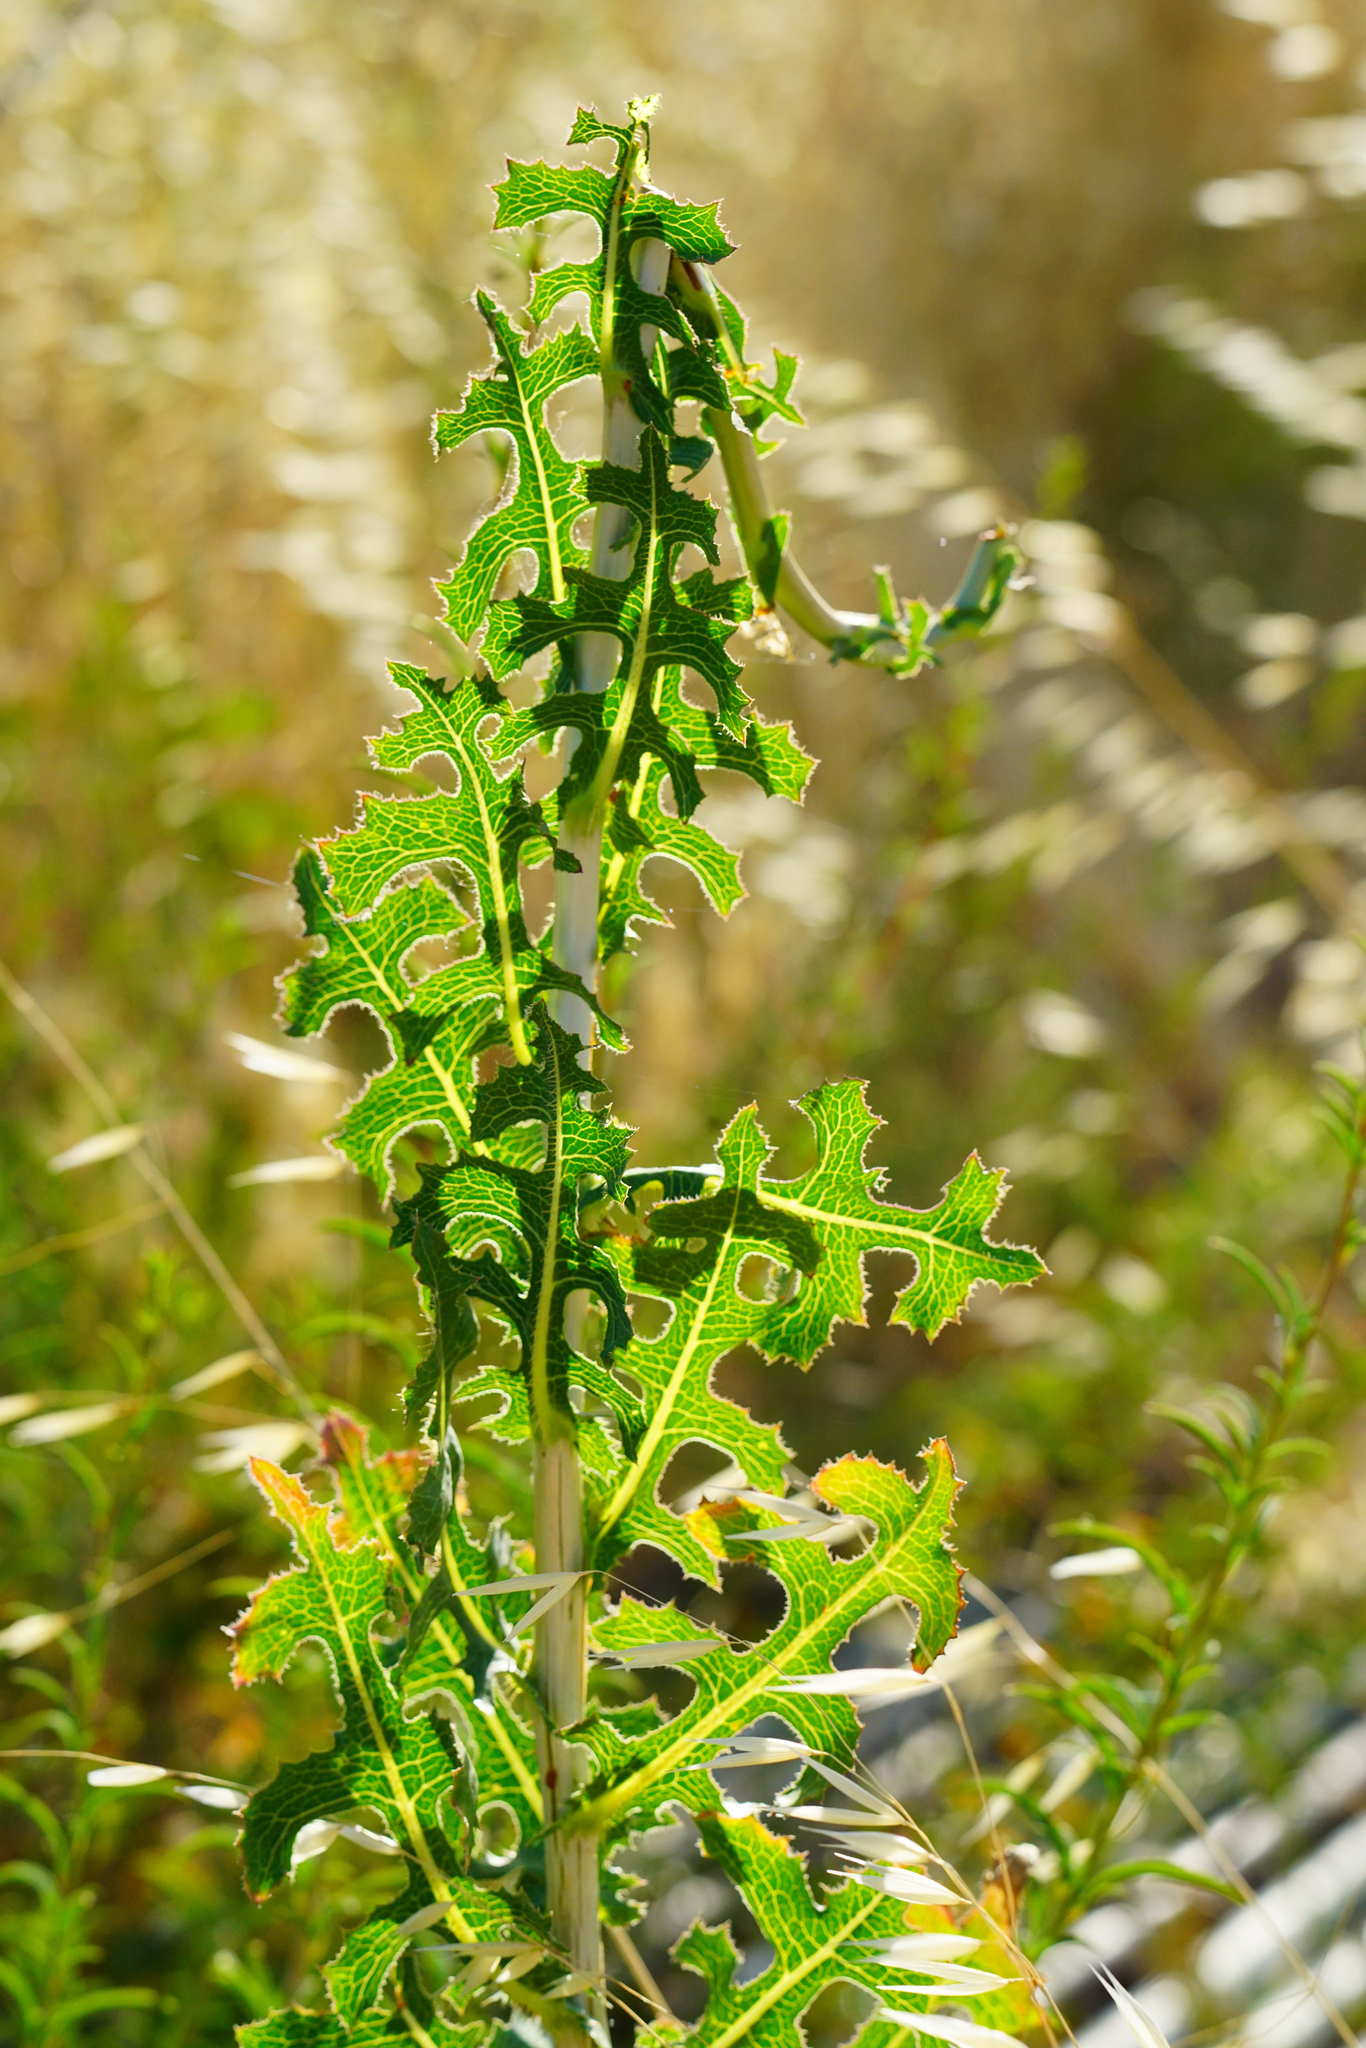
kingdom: Plantae
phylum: Tracheophyta
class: Magnoliopsida
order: Asterales
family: Asteraceae
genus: Lactuca
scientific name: Lactuca serriola
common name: Prickly lettuce
